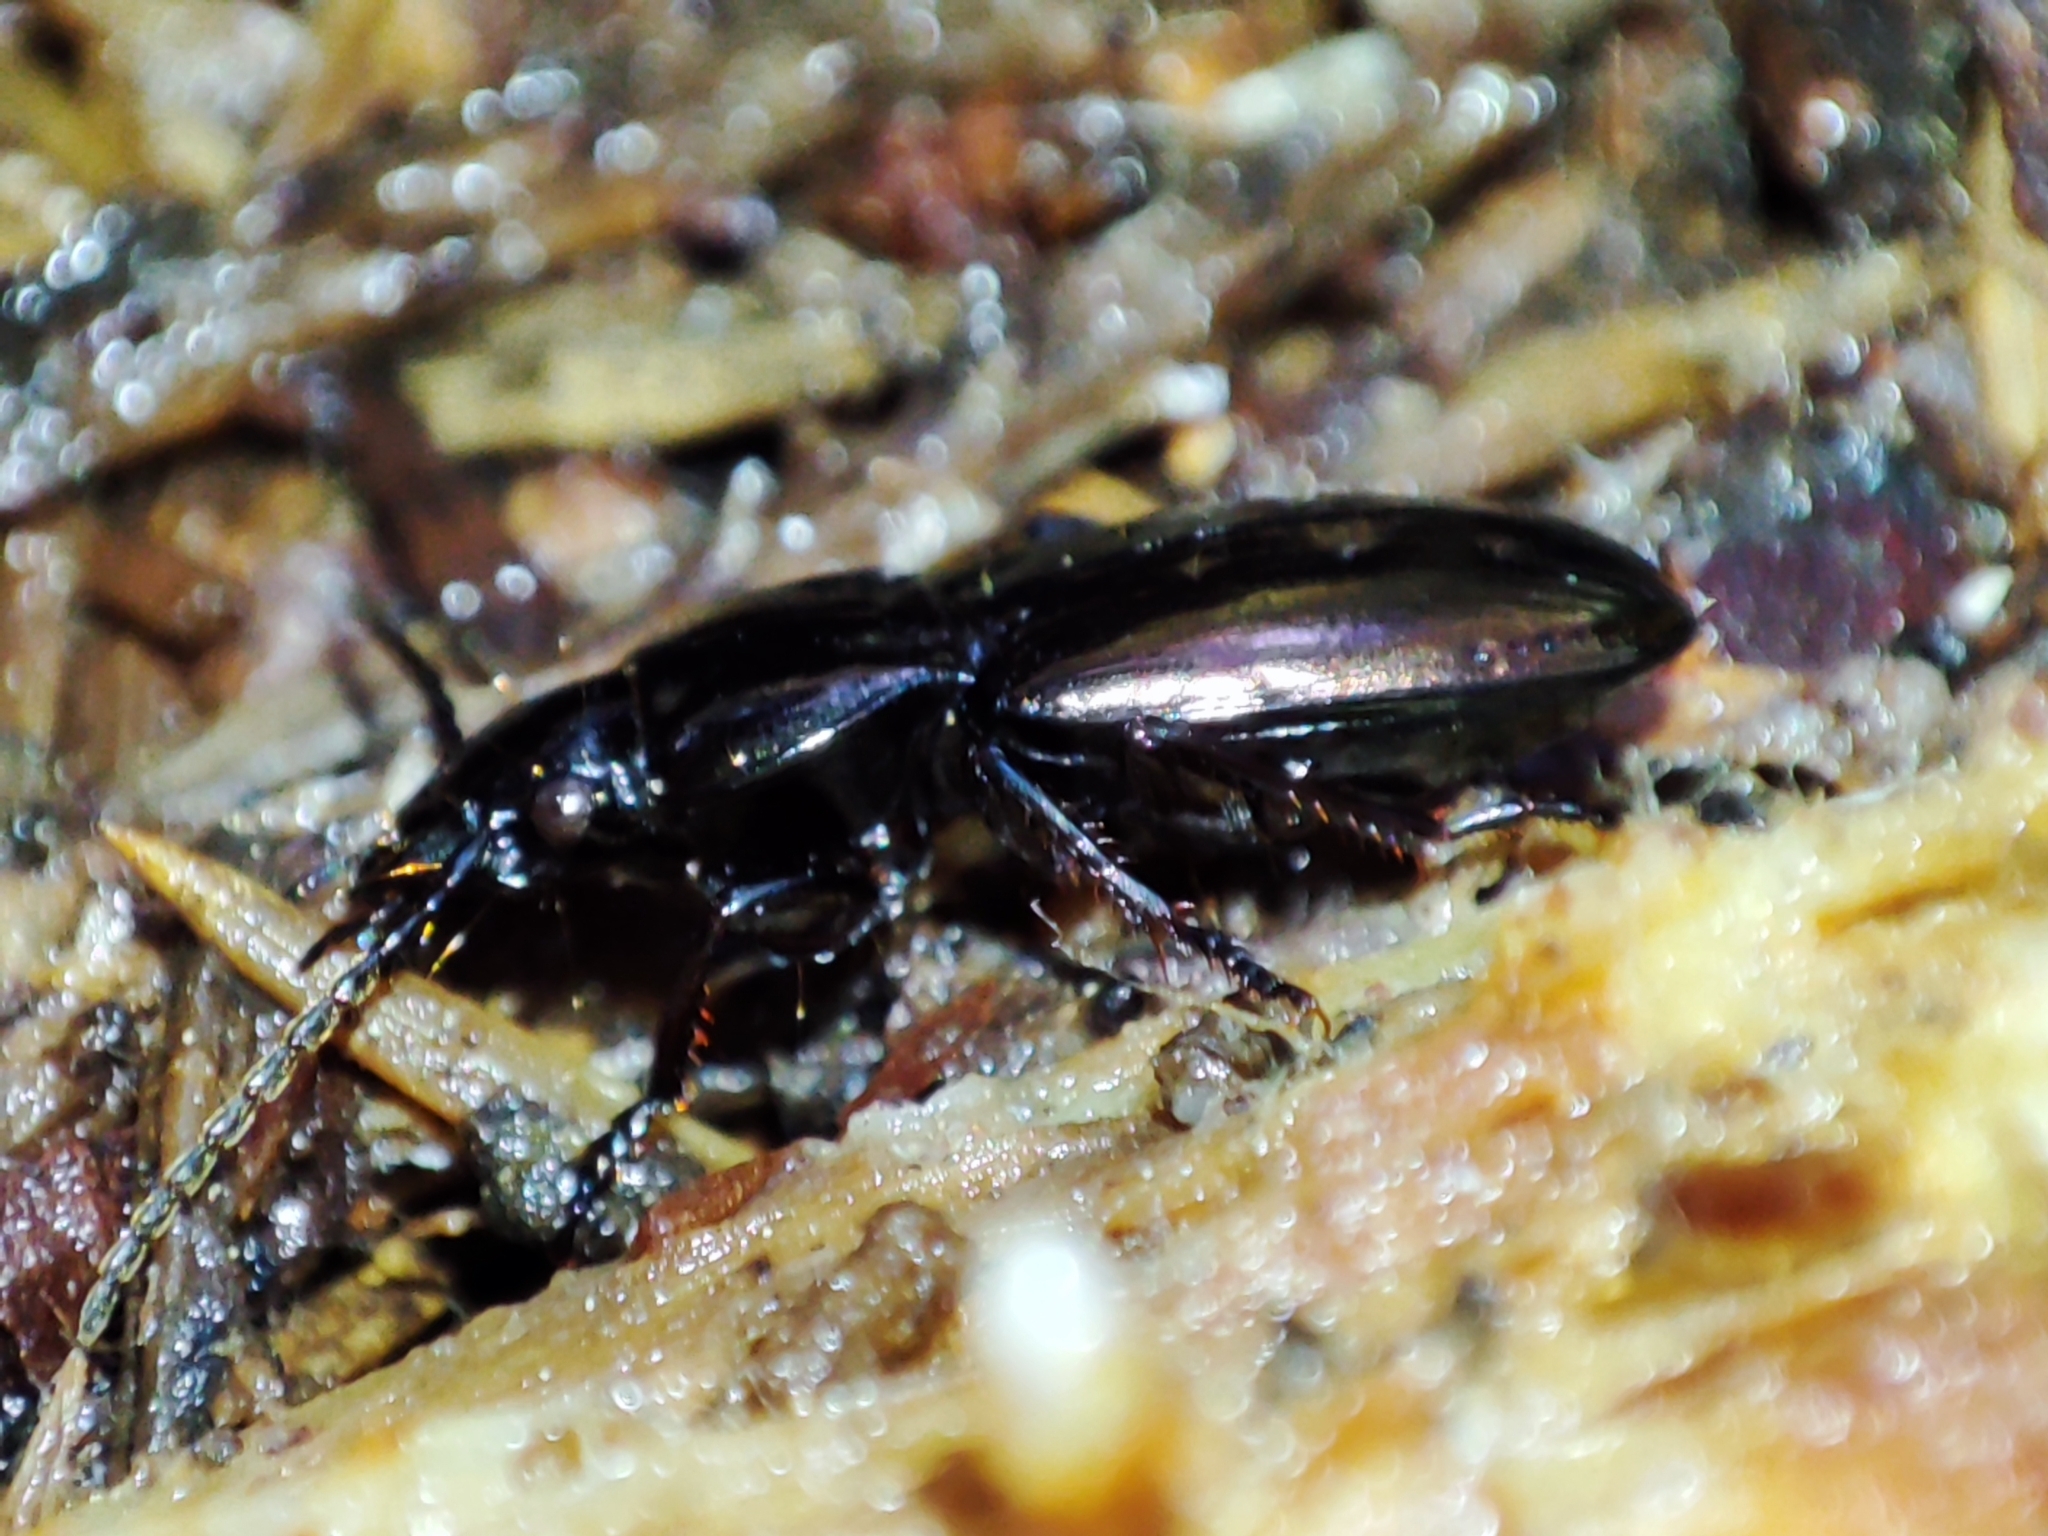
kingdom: Animalia
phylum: Arthropoda
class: Insecta
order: Coleoptera
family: Carabidae
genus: Pterostichus
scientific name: Pterostichus jurinei
